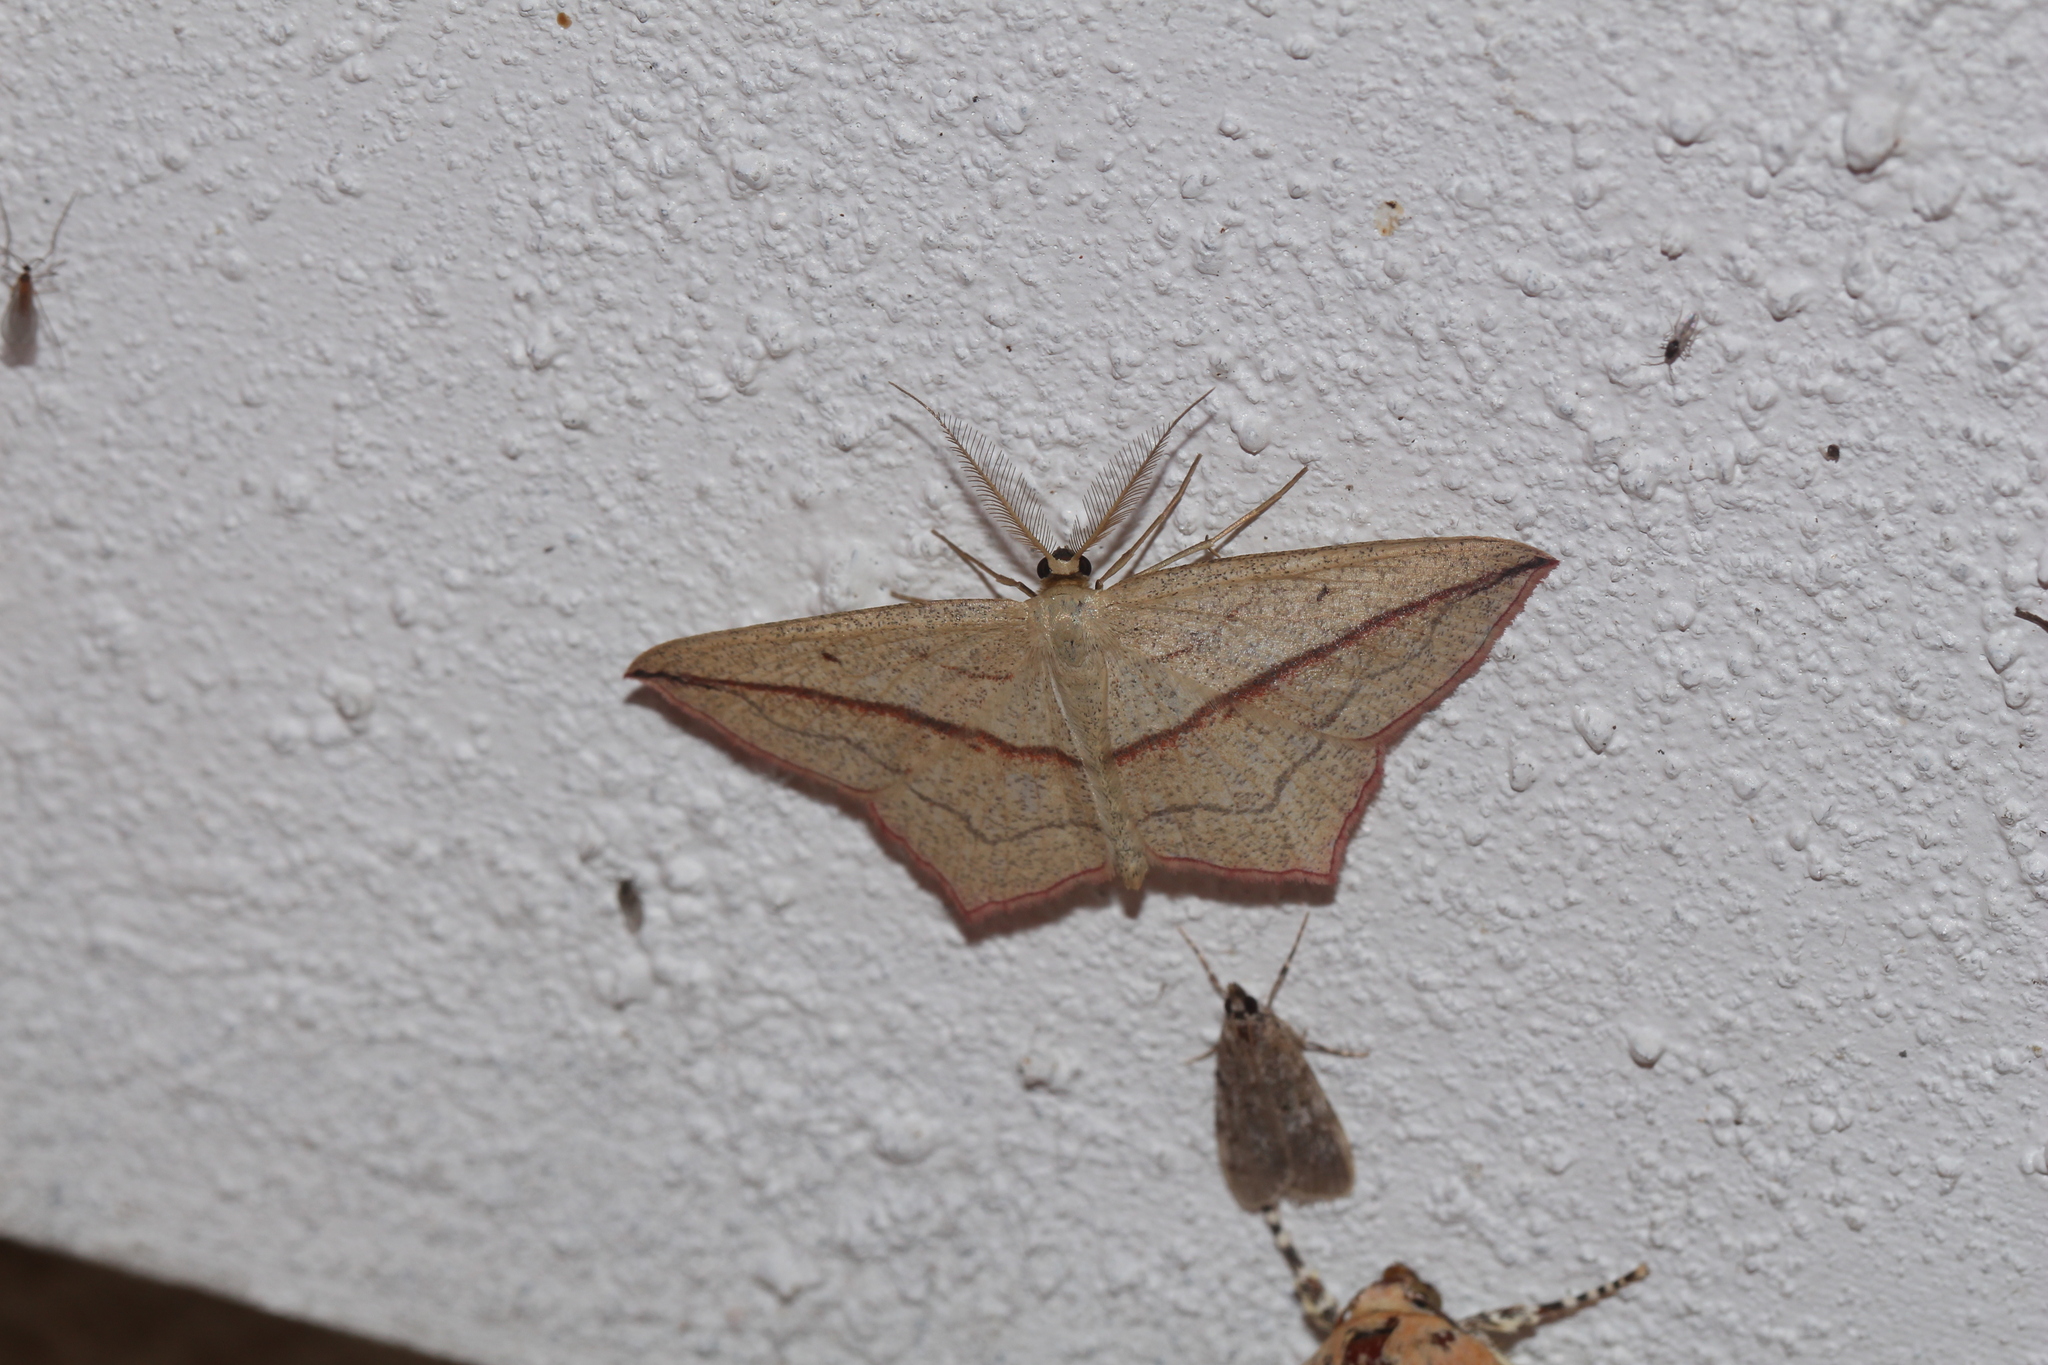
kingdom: Animalia
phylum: Arthropoda
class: Insecta
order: Lepidoptera
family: Geometridae
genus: Timandra
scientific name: Timandra comae
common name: Blood-vein
